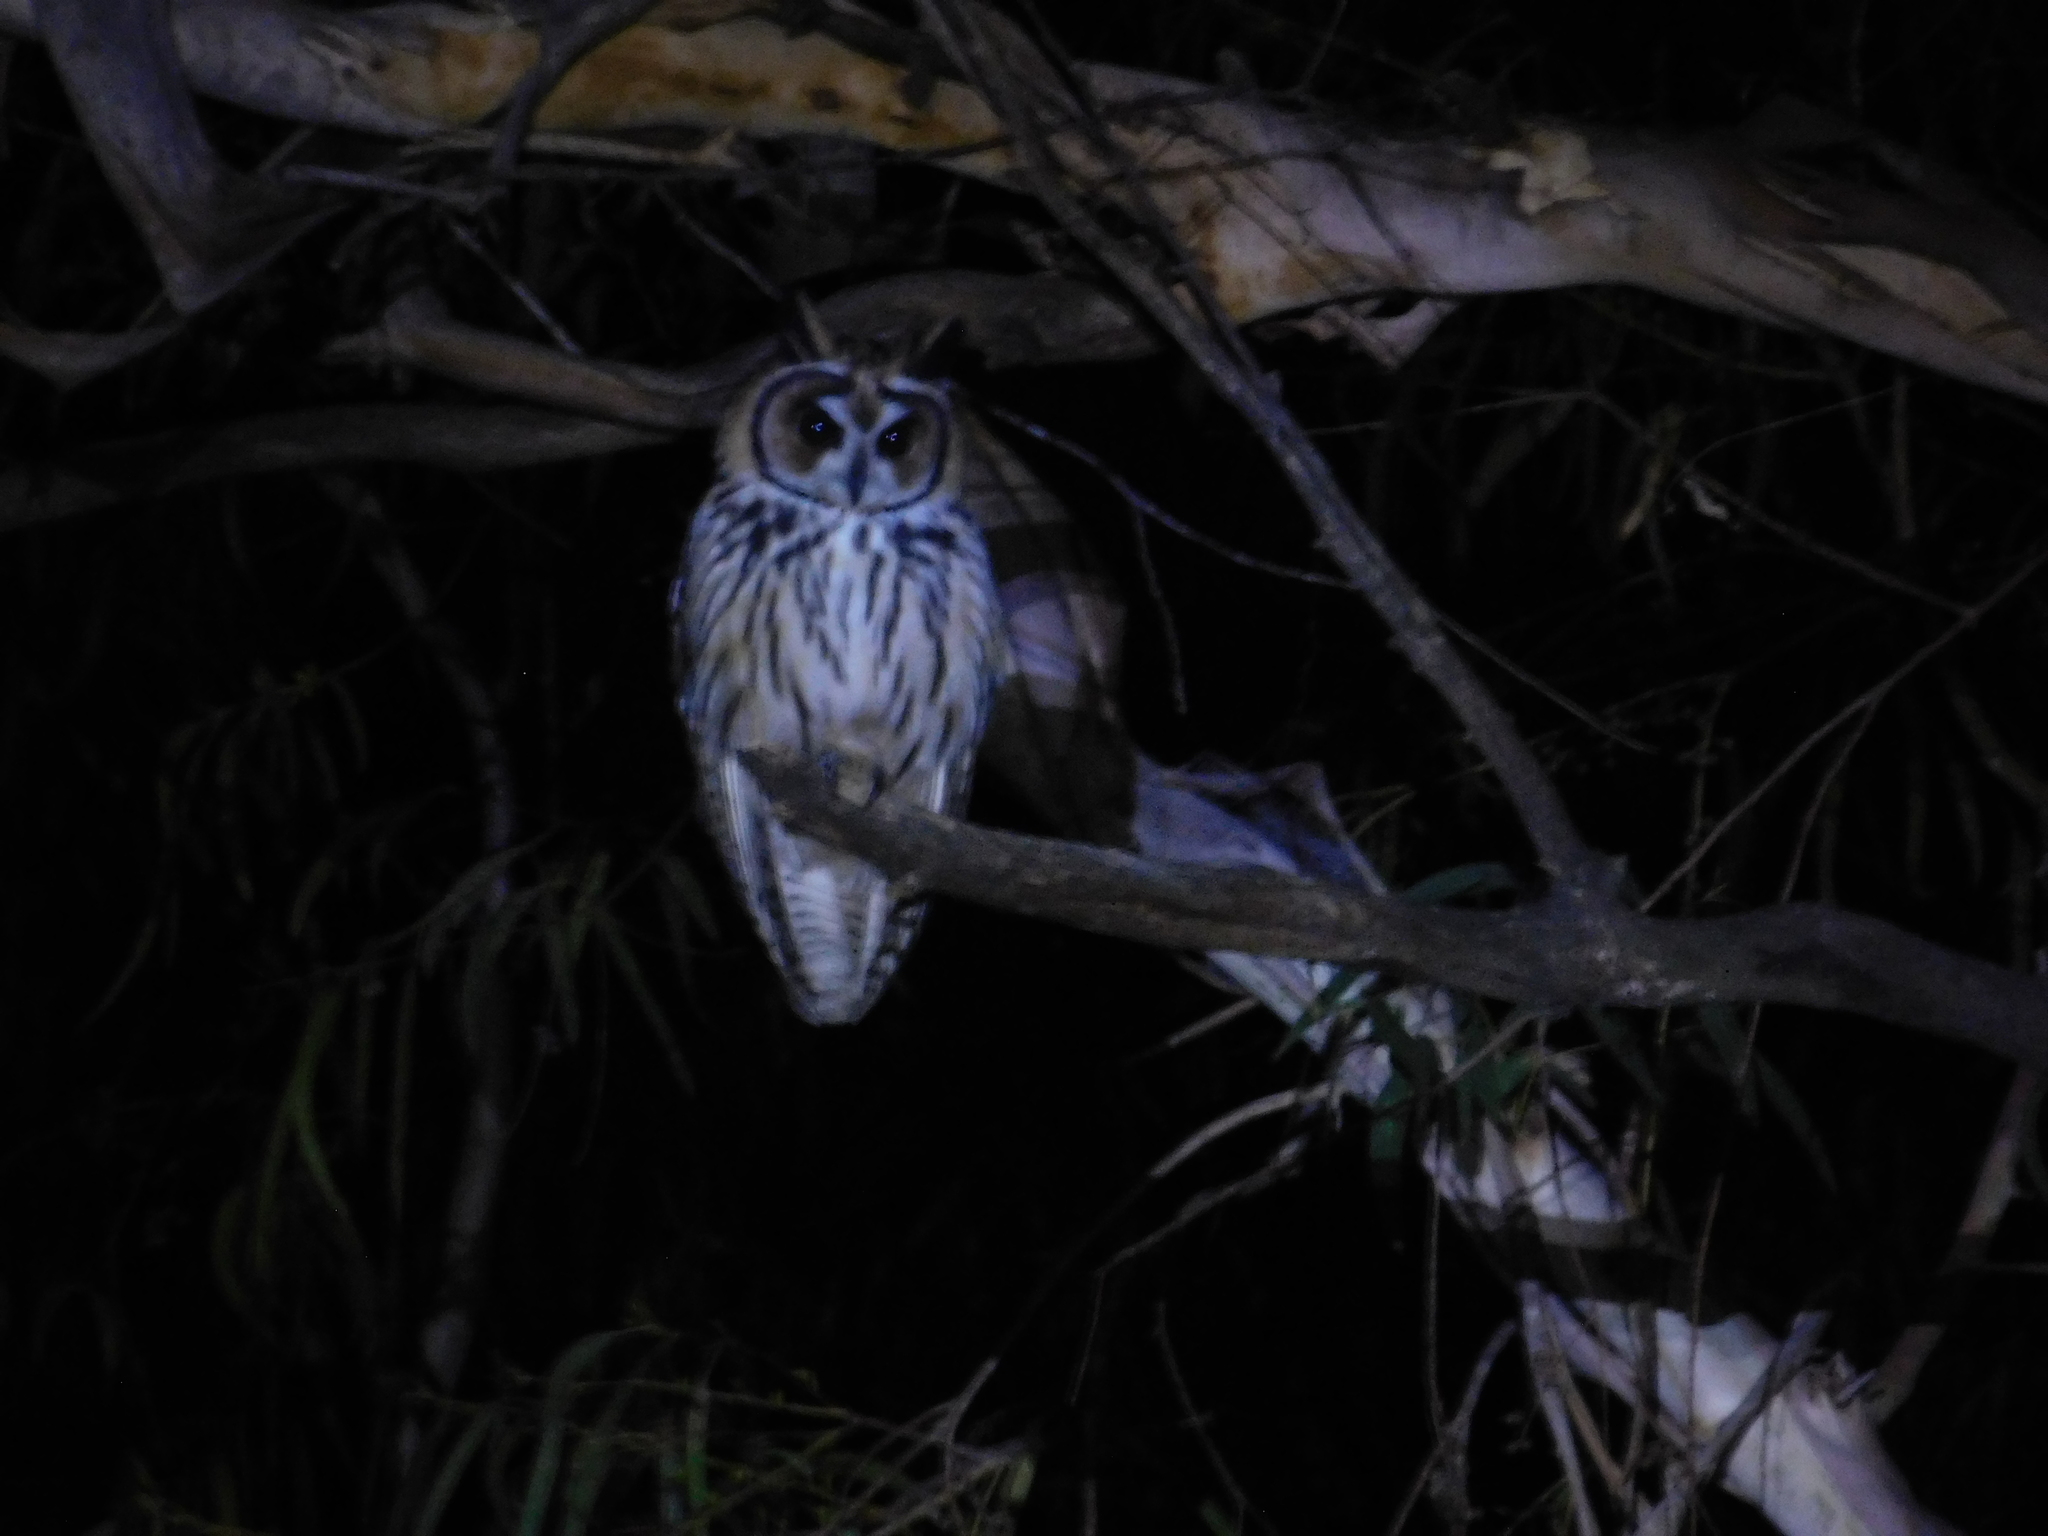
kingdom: Animalia
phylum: Chordata
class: Aves
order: Strigiformes
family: Strigidae
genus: Pseudoscops
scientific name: Pseudoscops clamator
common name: Striped owl
